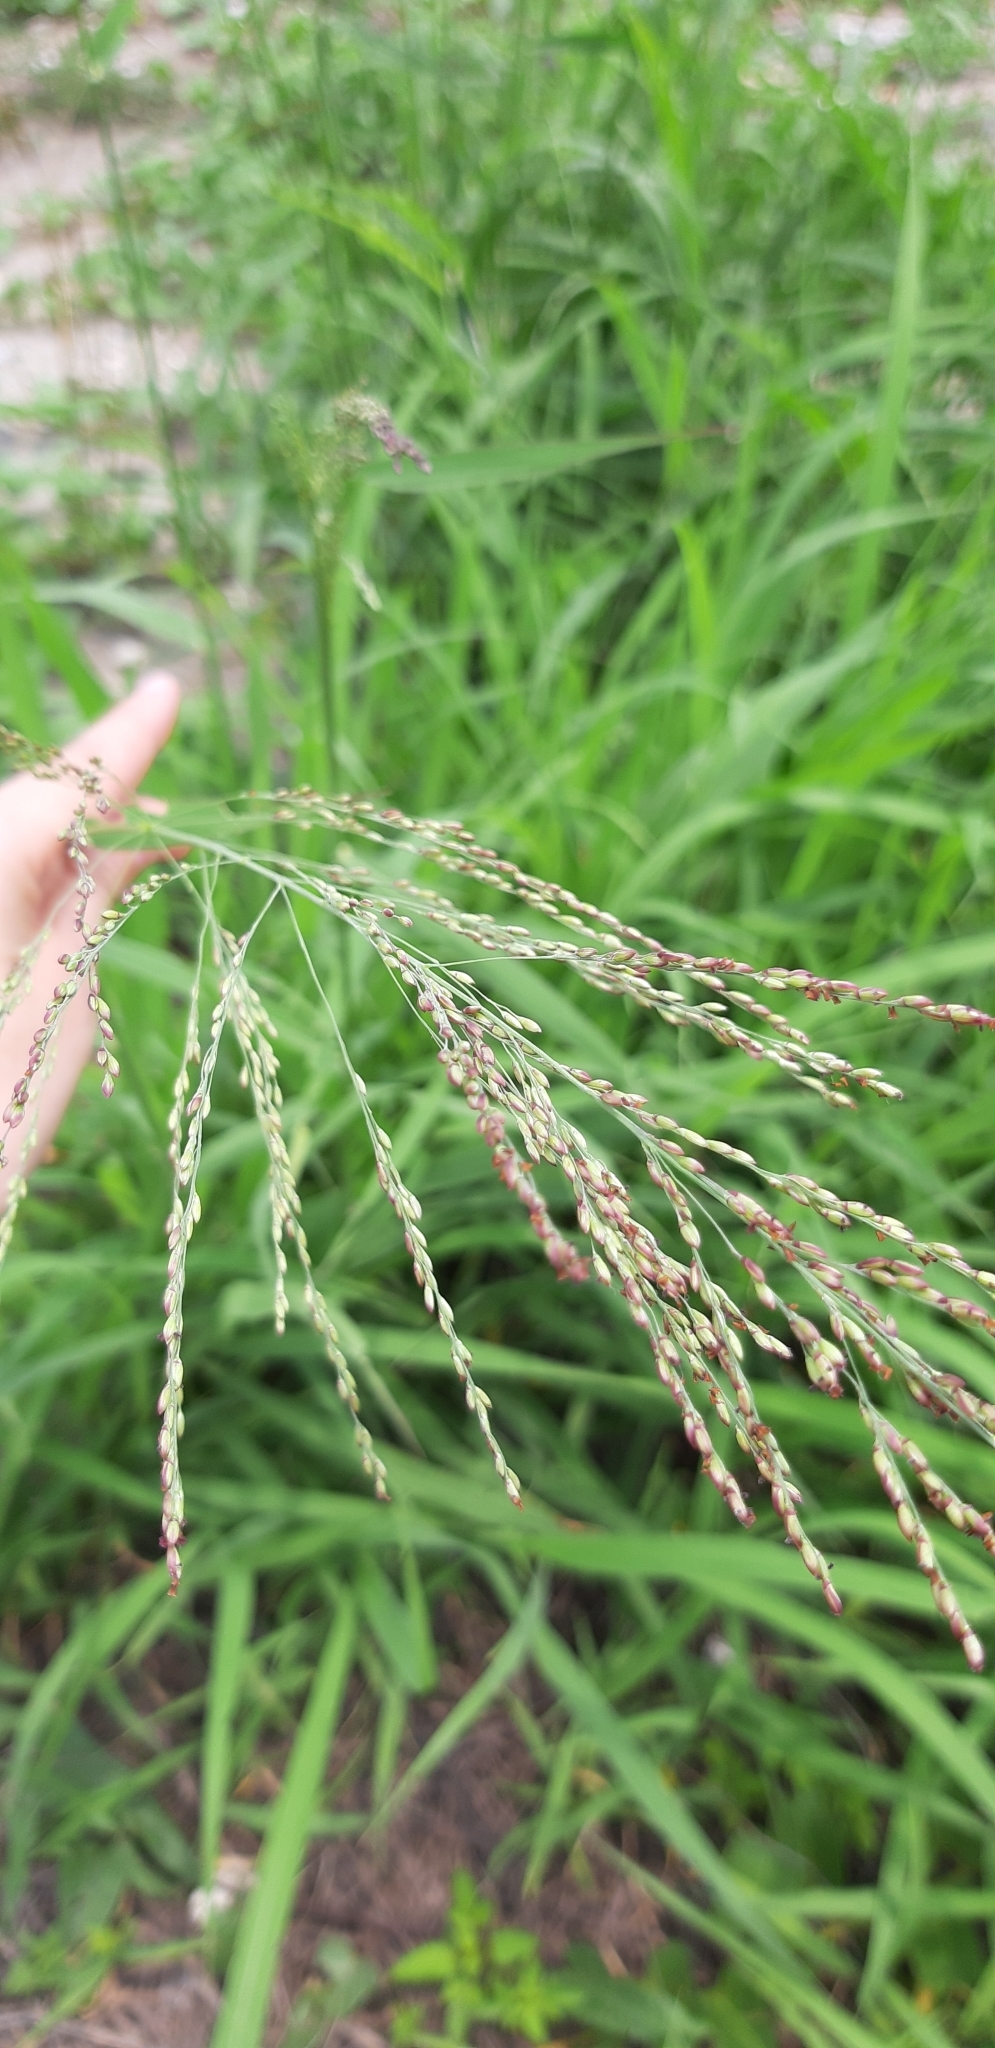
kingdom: Plantae
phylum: Tracheophyta
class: Liliopsida
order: Poales
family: Poaceae
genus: Megathyrsus
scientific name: Megathyrsus maximus
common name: Guineagrass
